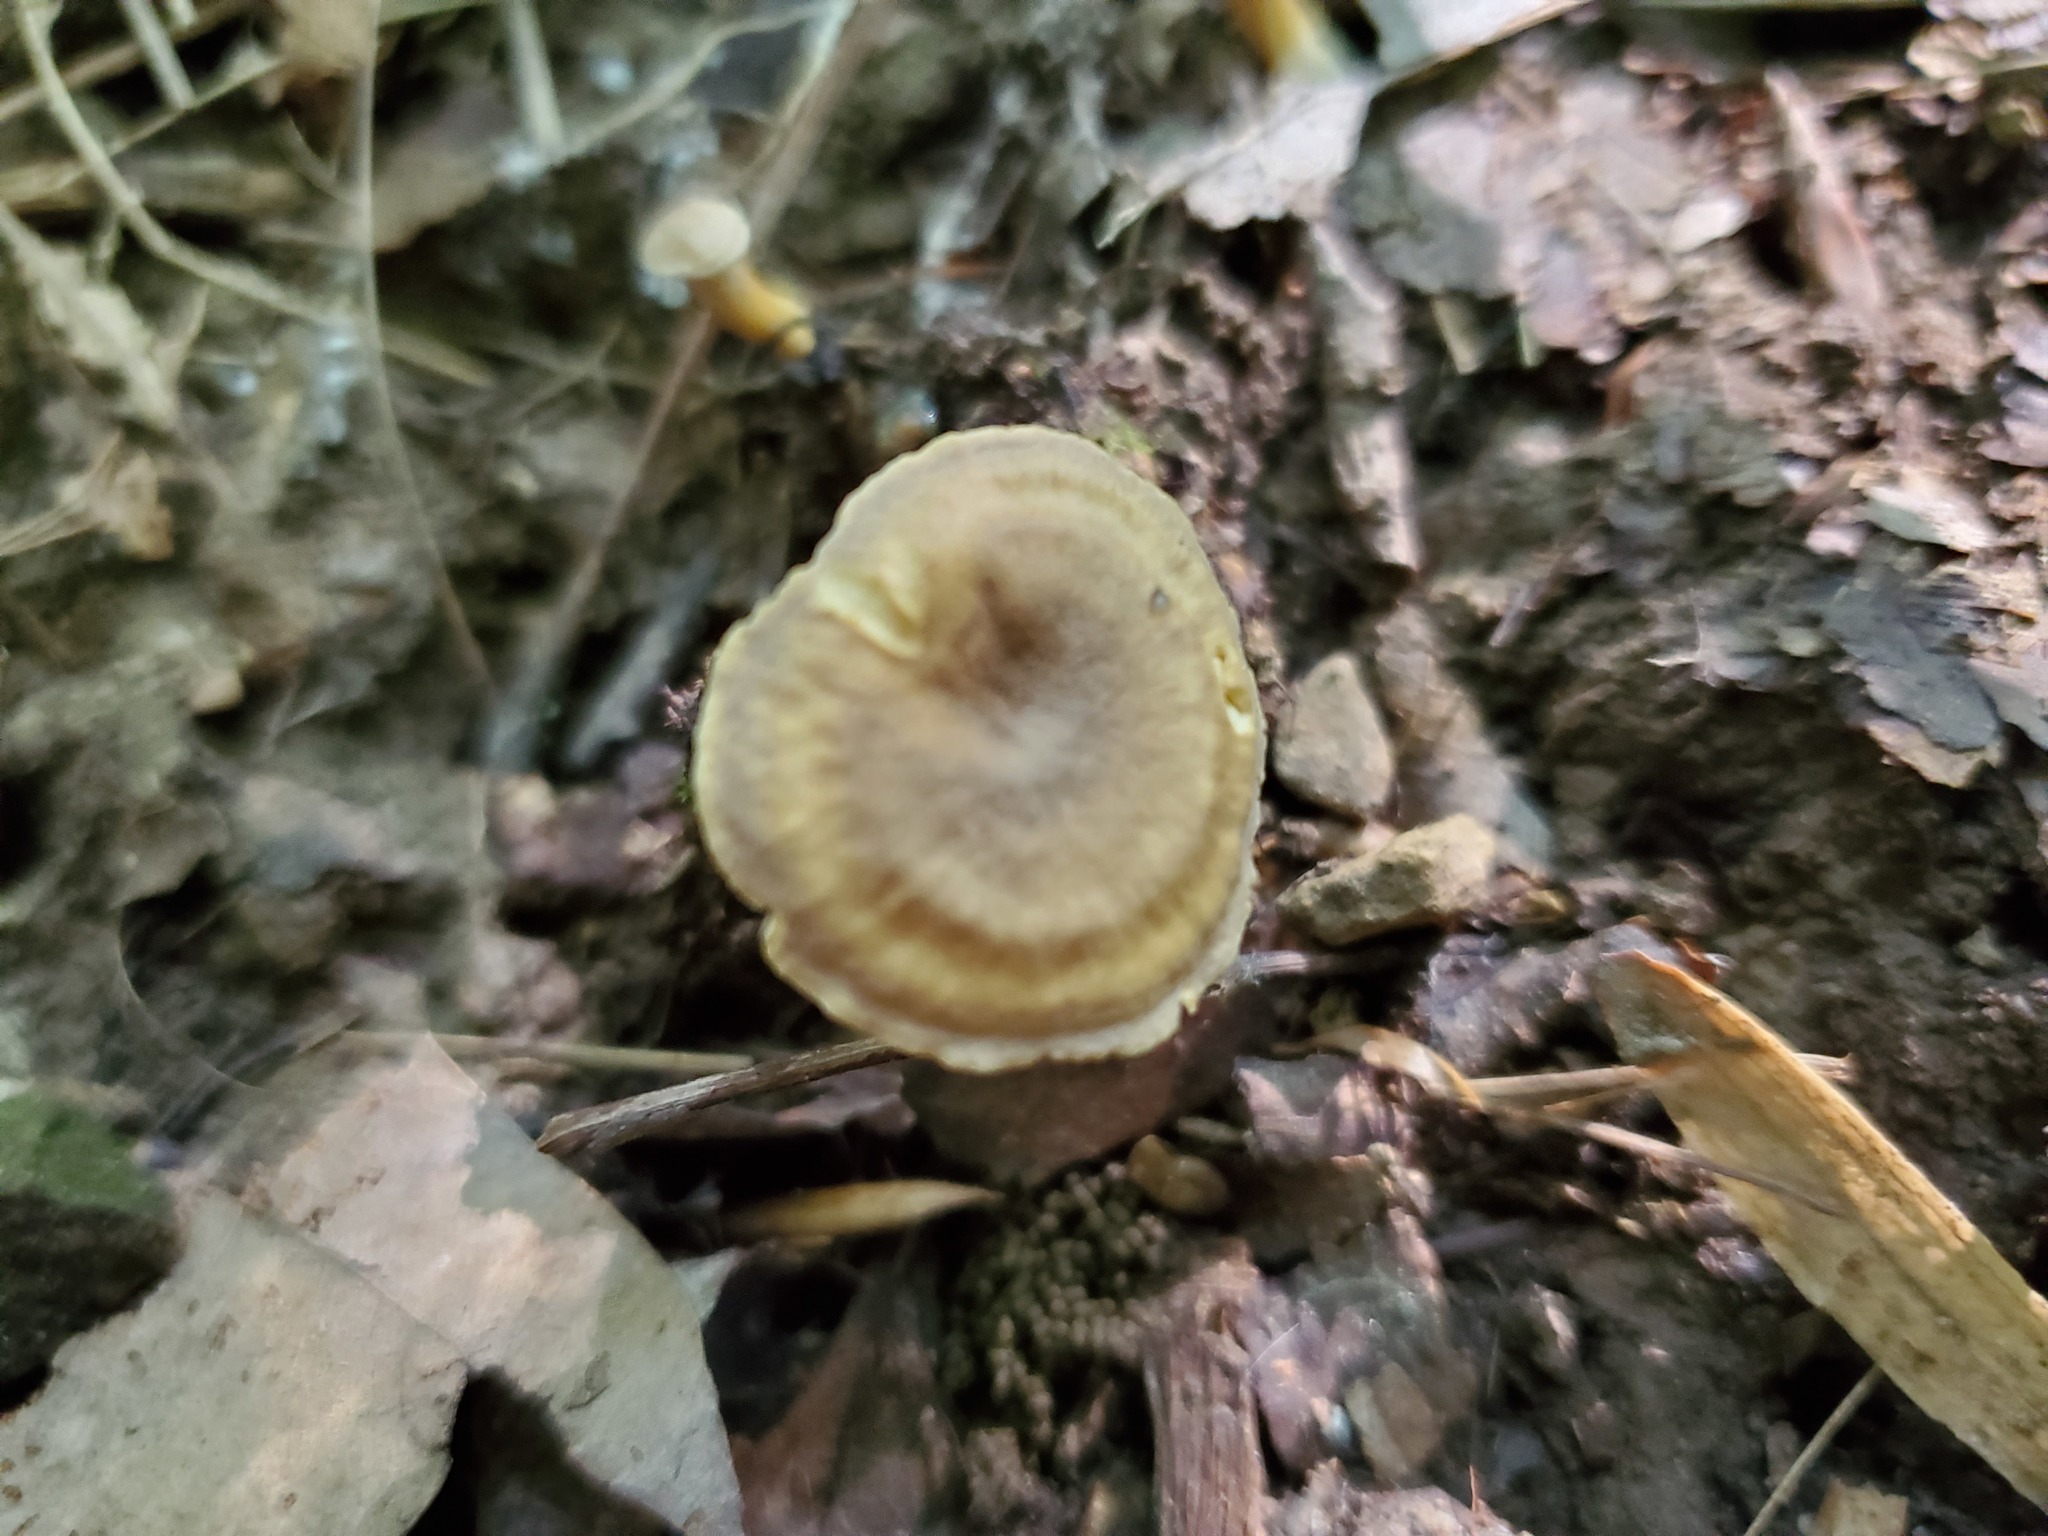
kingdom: Fungi
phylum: Basidiomycota
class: Agaricomycetes
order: Cantharellales
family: Hydnaceae
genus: Cantharellus
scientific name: Cantharellus appalachiensis
